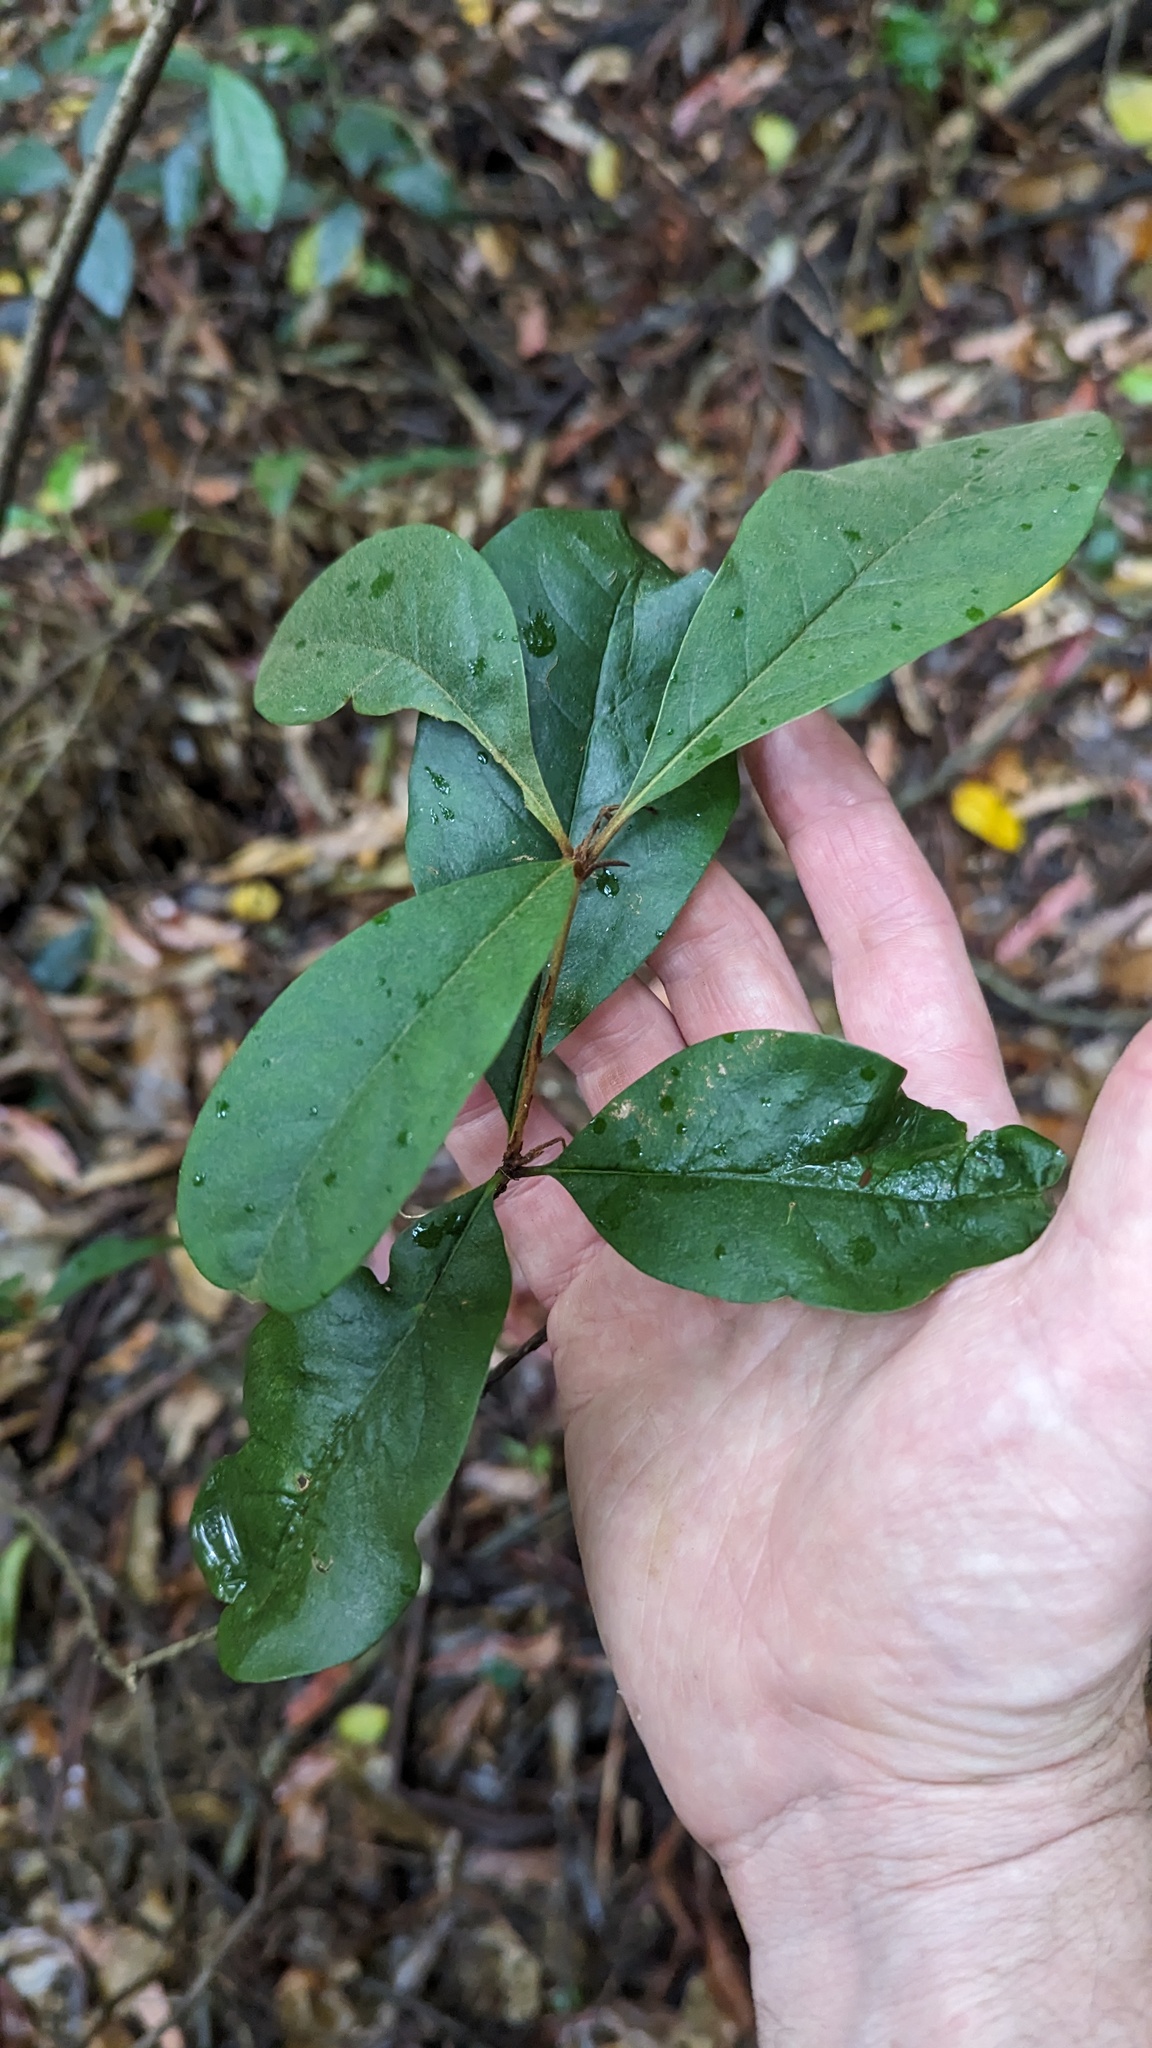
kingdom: Plantae
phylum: Tracheophyta
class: Magnoliopsida
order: Apiales
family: Pittosporaceae
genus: Pittosporum
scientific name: Pittosporum revolutum
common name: Brisbane-laurel
